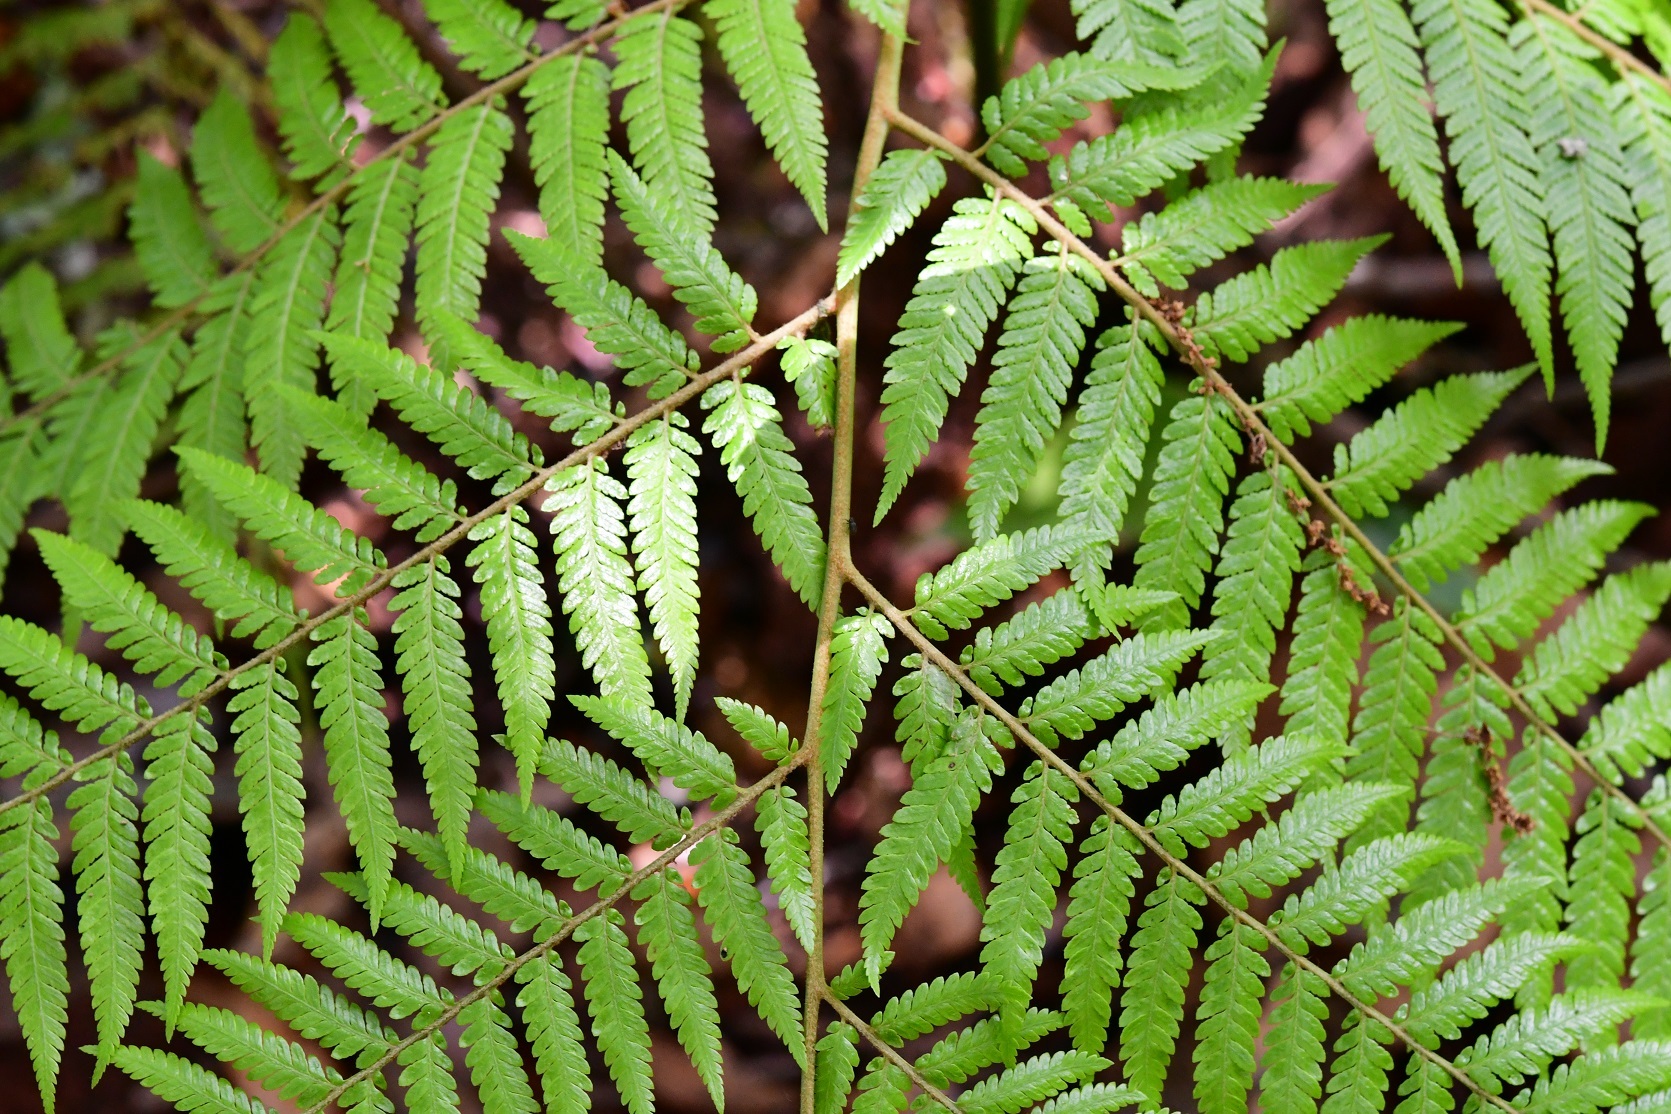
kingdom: Plantae
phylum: Tracheophyta
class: Polypodiopsida
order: Cyatheales
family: Dicksoniaceae
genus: Lophosoria
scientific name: Lophosoria quadripinnata
